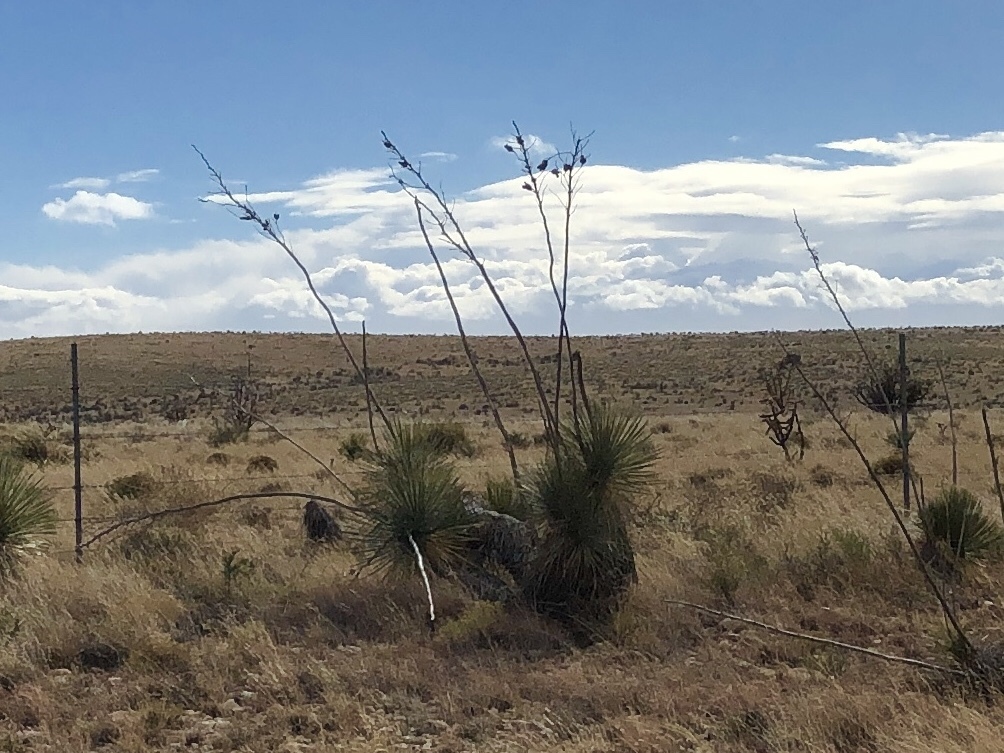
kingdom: Plantae
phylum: Tracheophyta
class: Liliopsida
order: Asparagales
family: Asparagaceae
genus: Yucca
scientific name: Yucca elata
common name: Palmella
